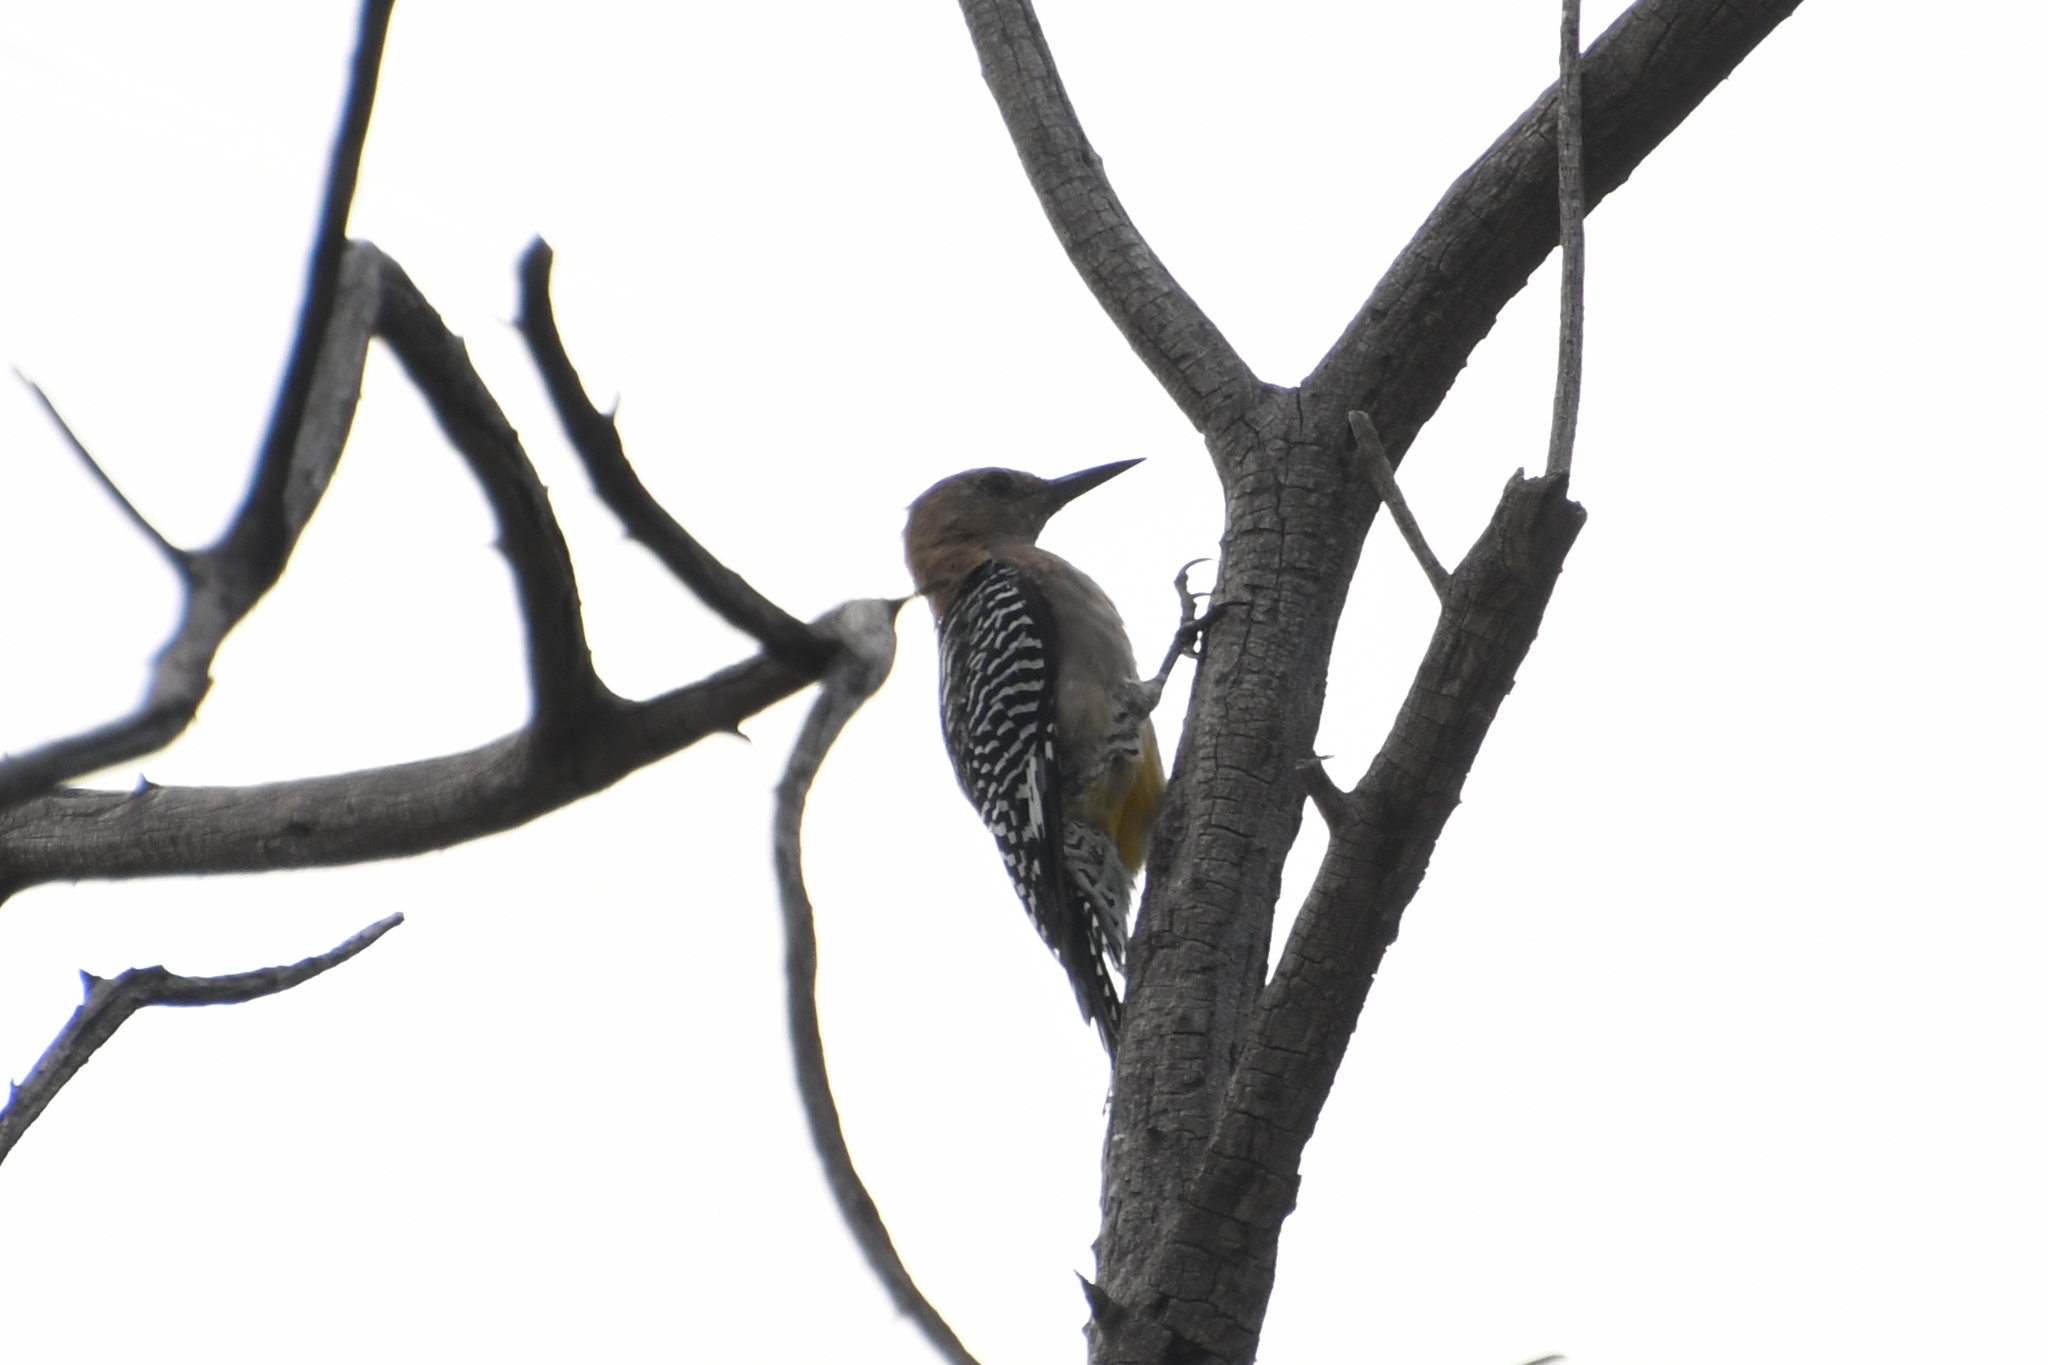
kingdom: Animalia
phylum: Chordata
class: Aves
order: Piciformes
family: Picidae
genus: Melanerpes
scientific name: Melanerpes uropygialis
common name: Gila woodpecker
